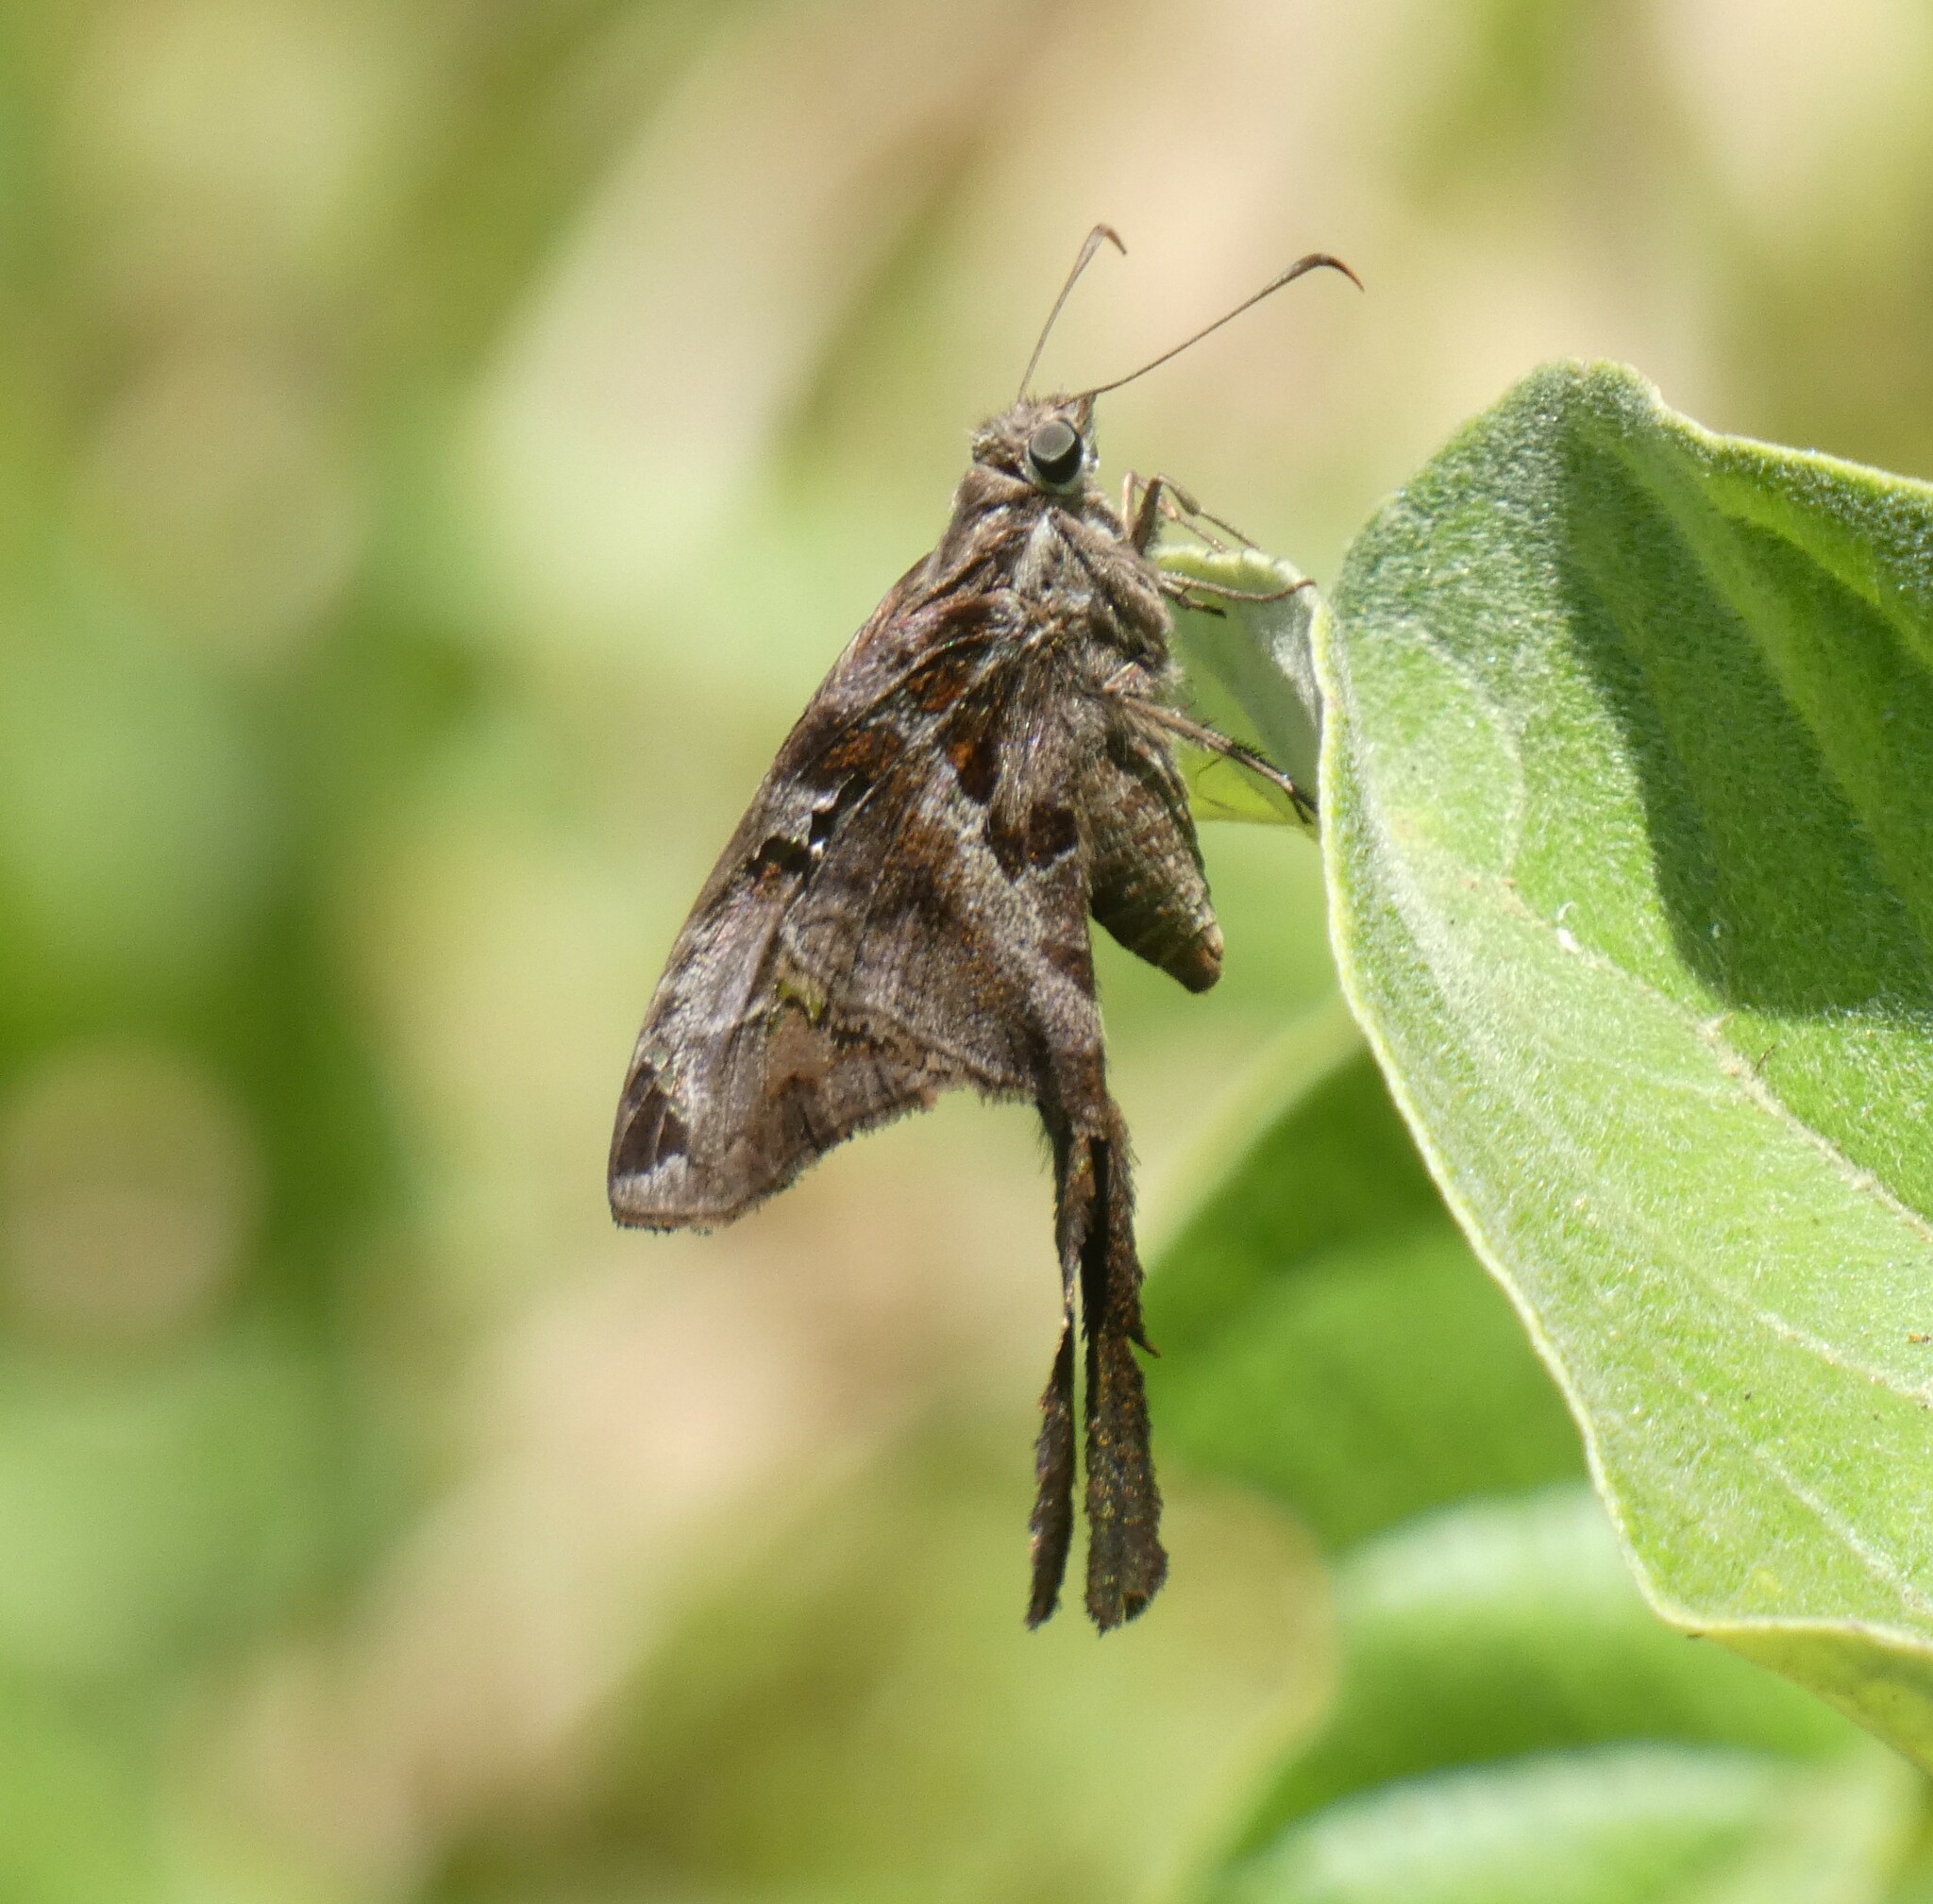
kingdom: Animalia
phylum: Arthropoda
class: Insecta
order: Lepidoptera
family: Hesperiidae
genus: Chioides
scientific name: Chioides catillus
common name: Silverbanded skipper
